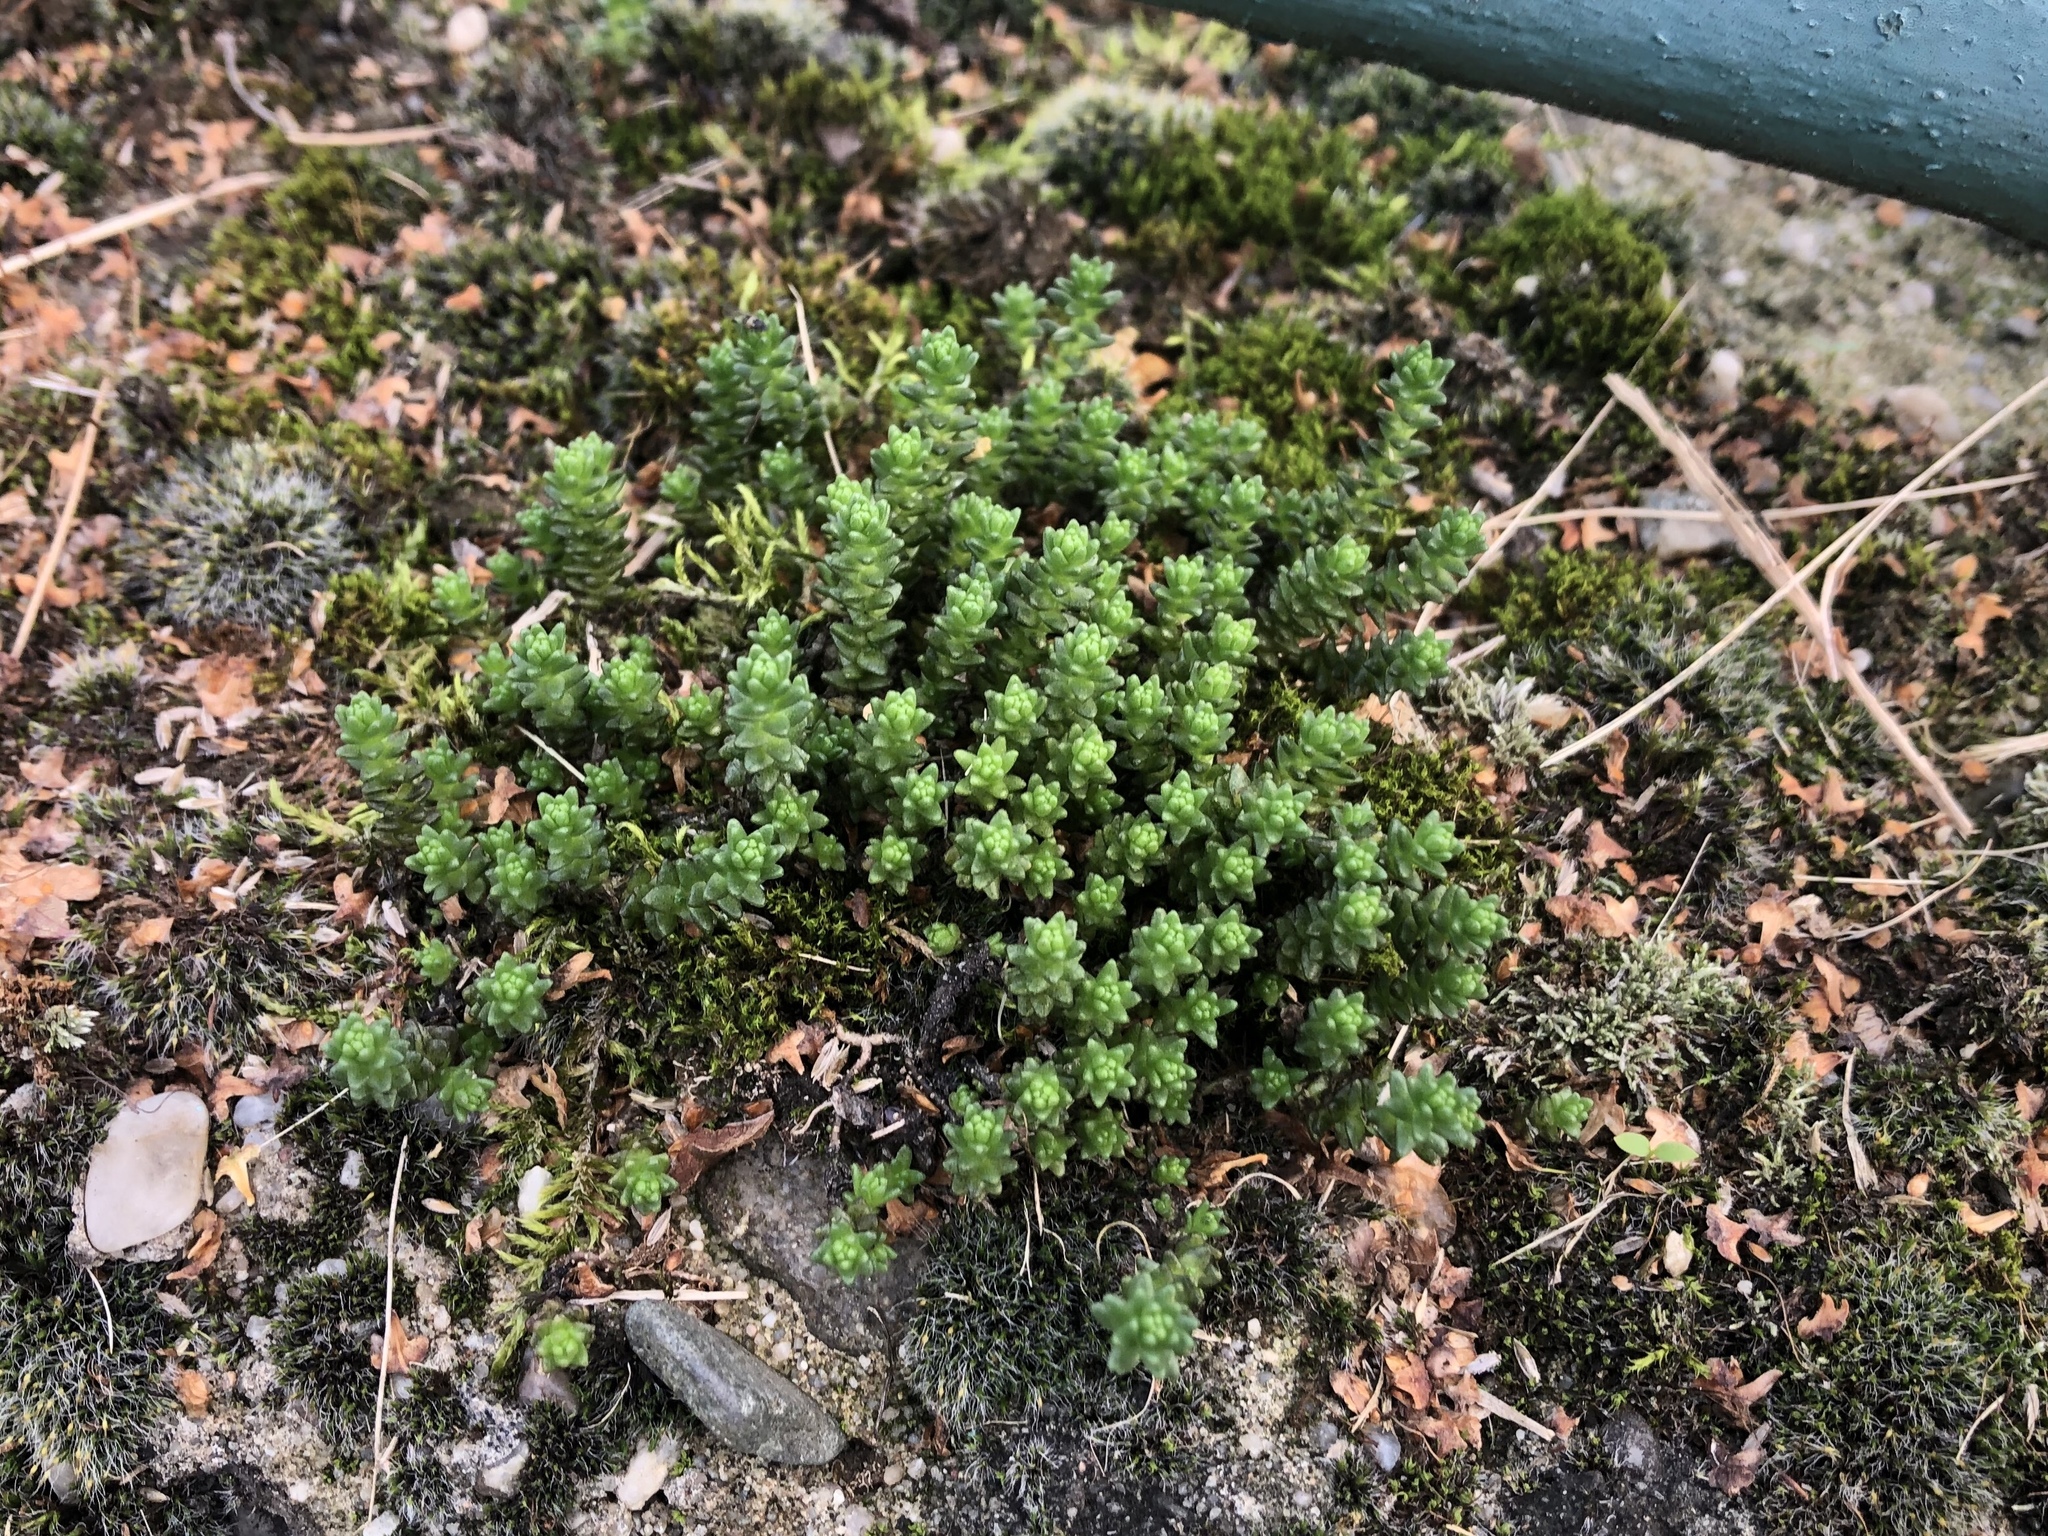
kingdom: Plantae
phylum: Tracheophyta
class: Magnoliopsida
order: Saxifragales
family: Crassulaceae
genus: Sedum
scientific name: Sedum acre
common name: Biting stonecrop
